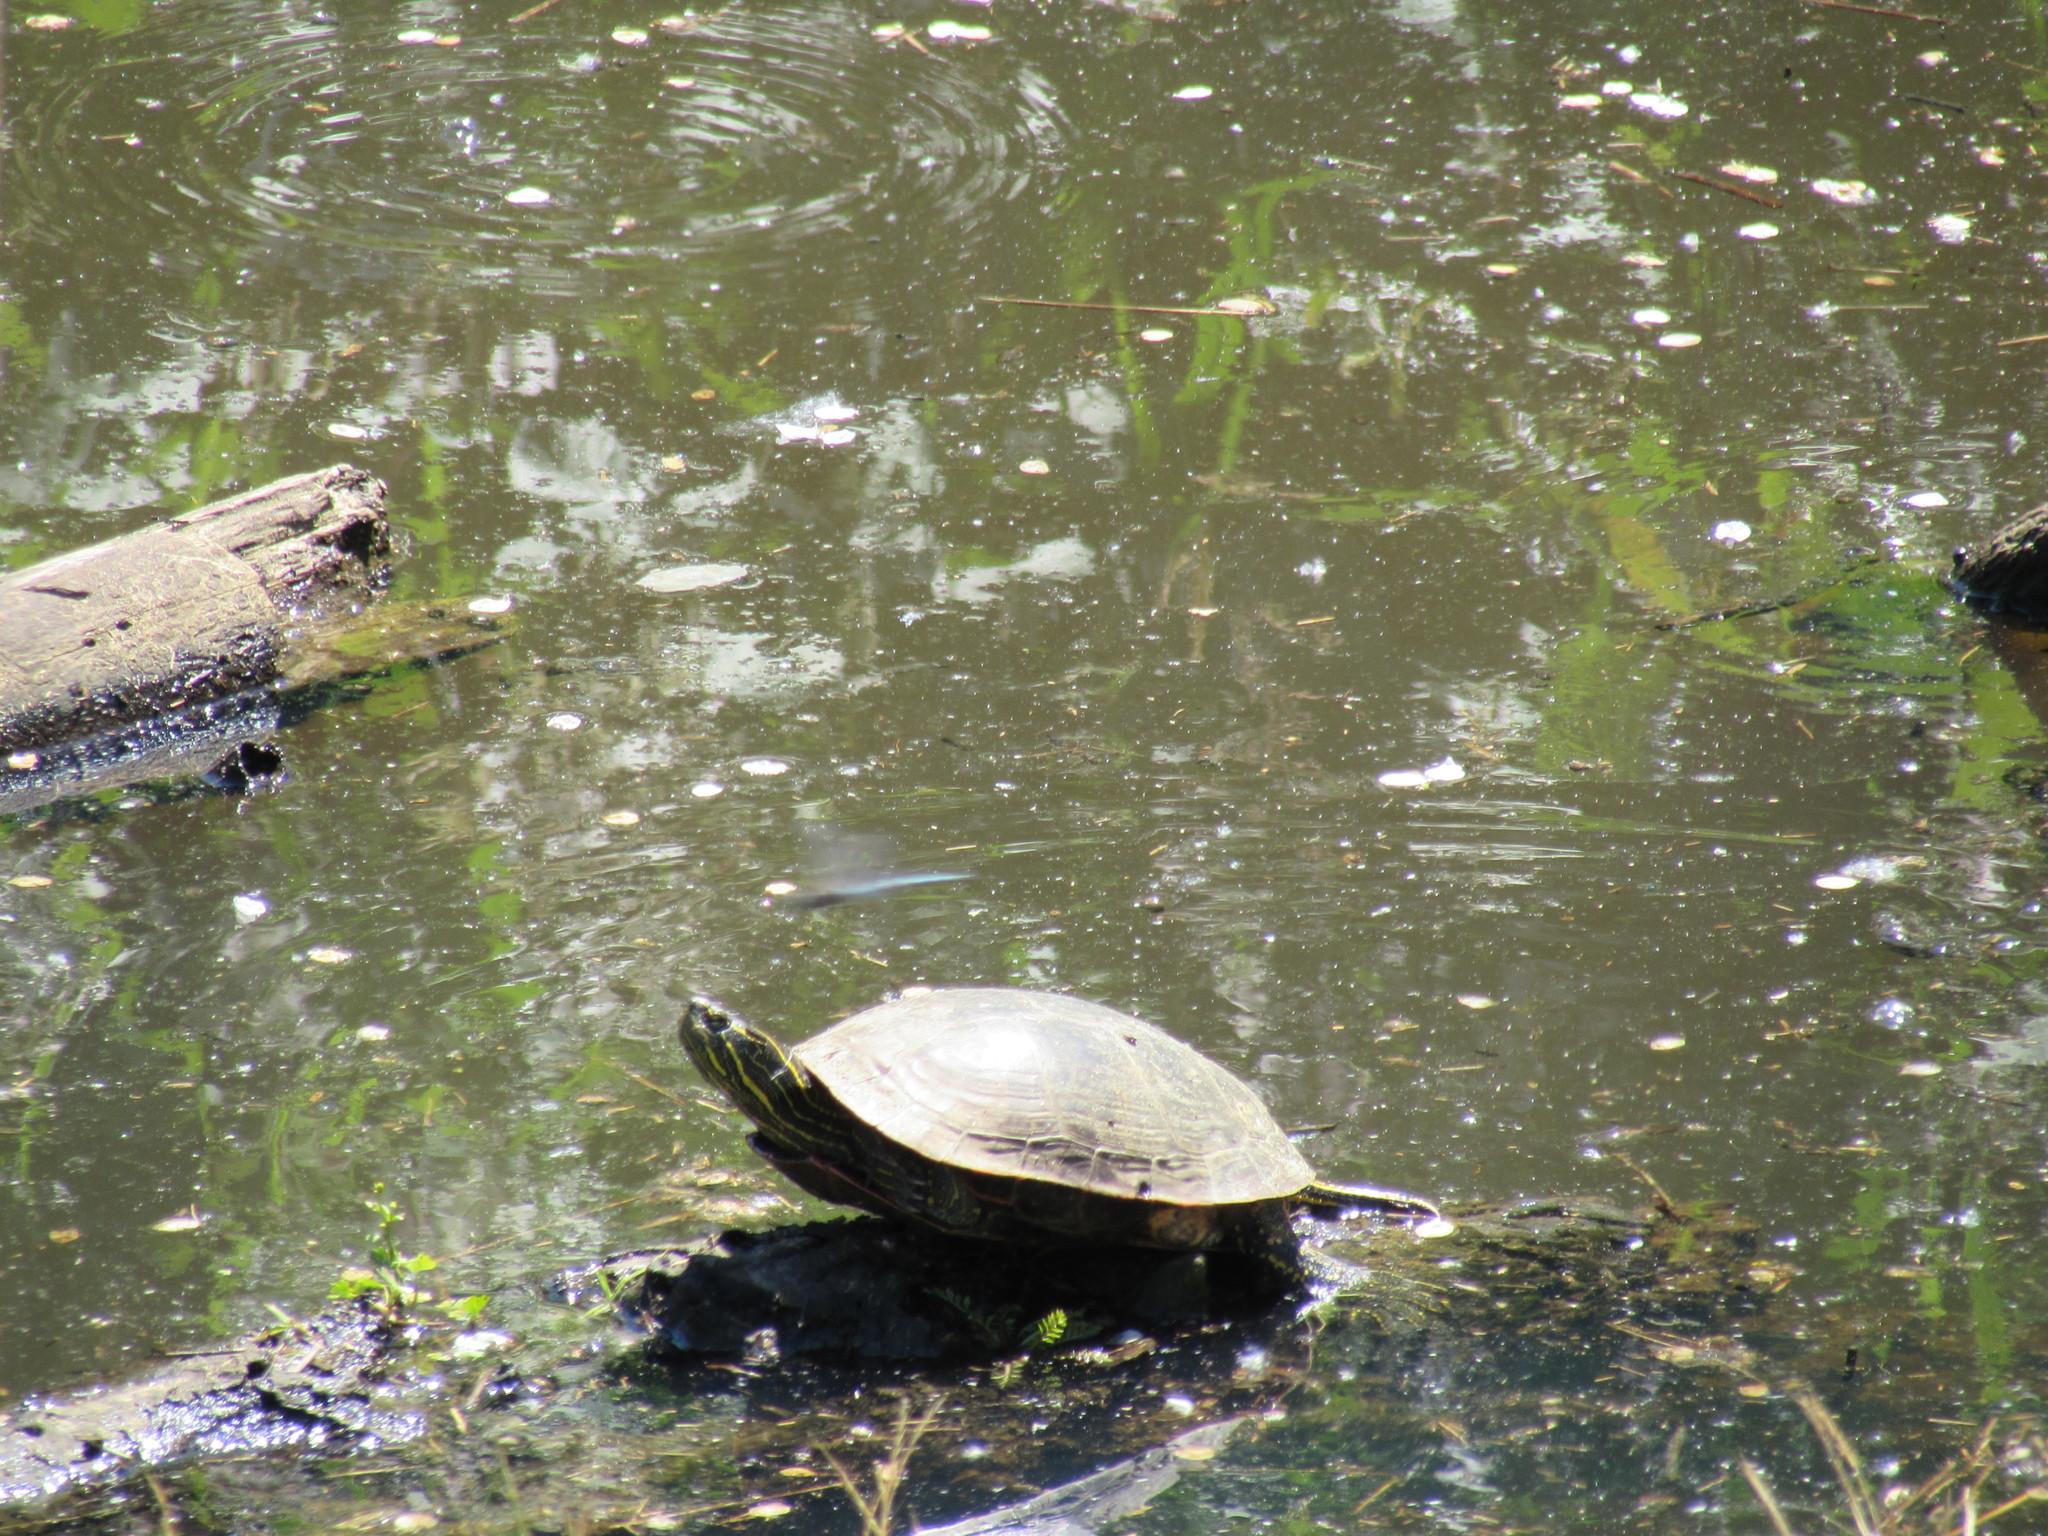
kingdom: Animalia
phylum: Chordata
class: Testudines
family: Emydidae
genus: Chrysemys
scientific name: Chrysemys picta
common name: Painted turtle
